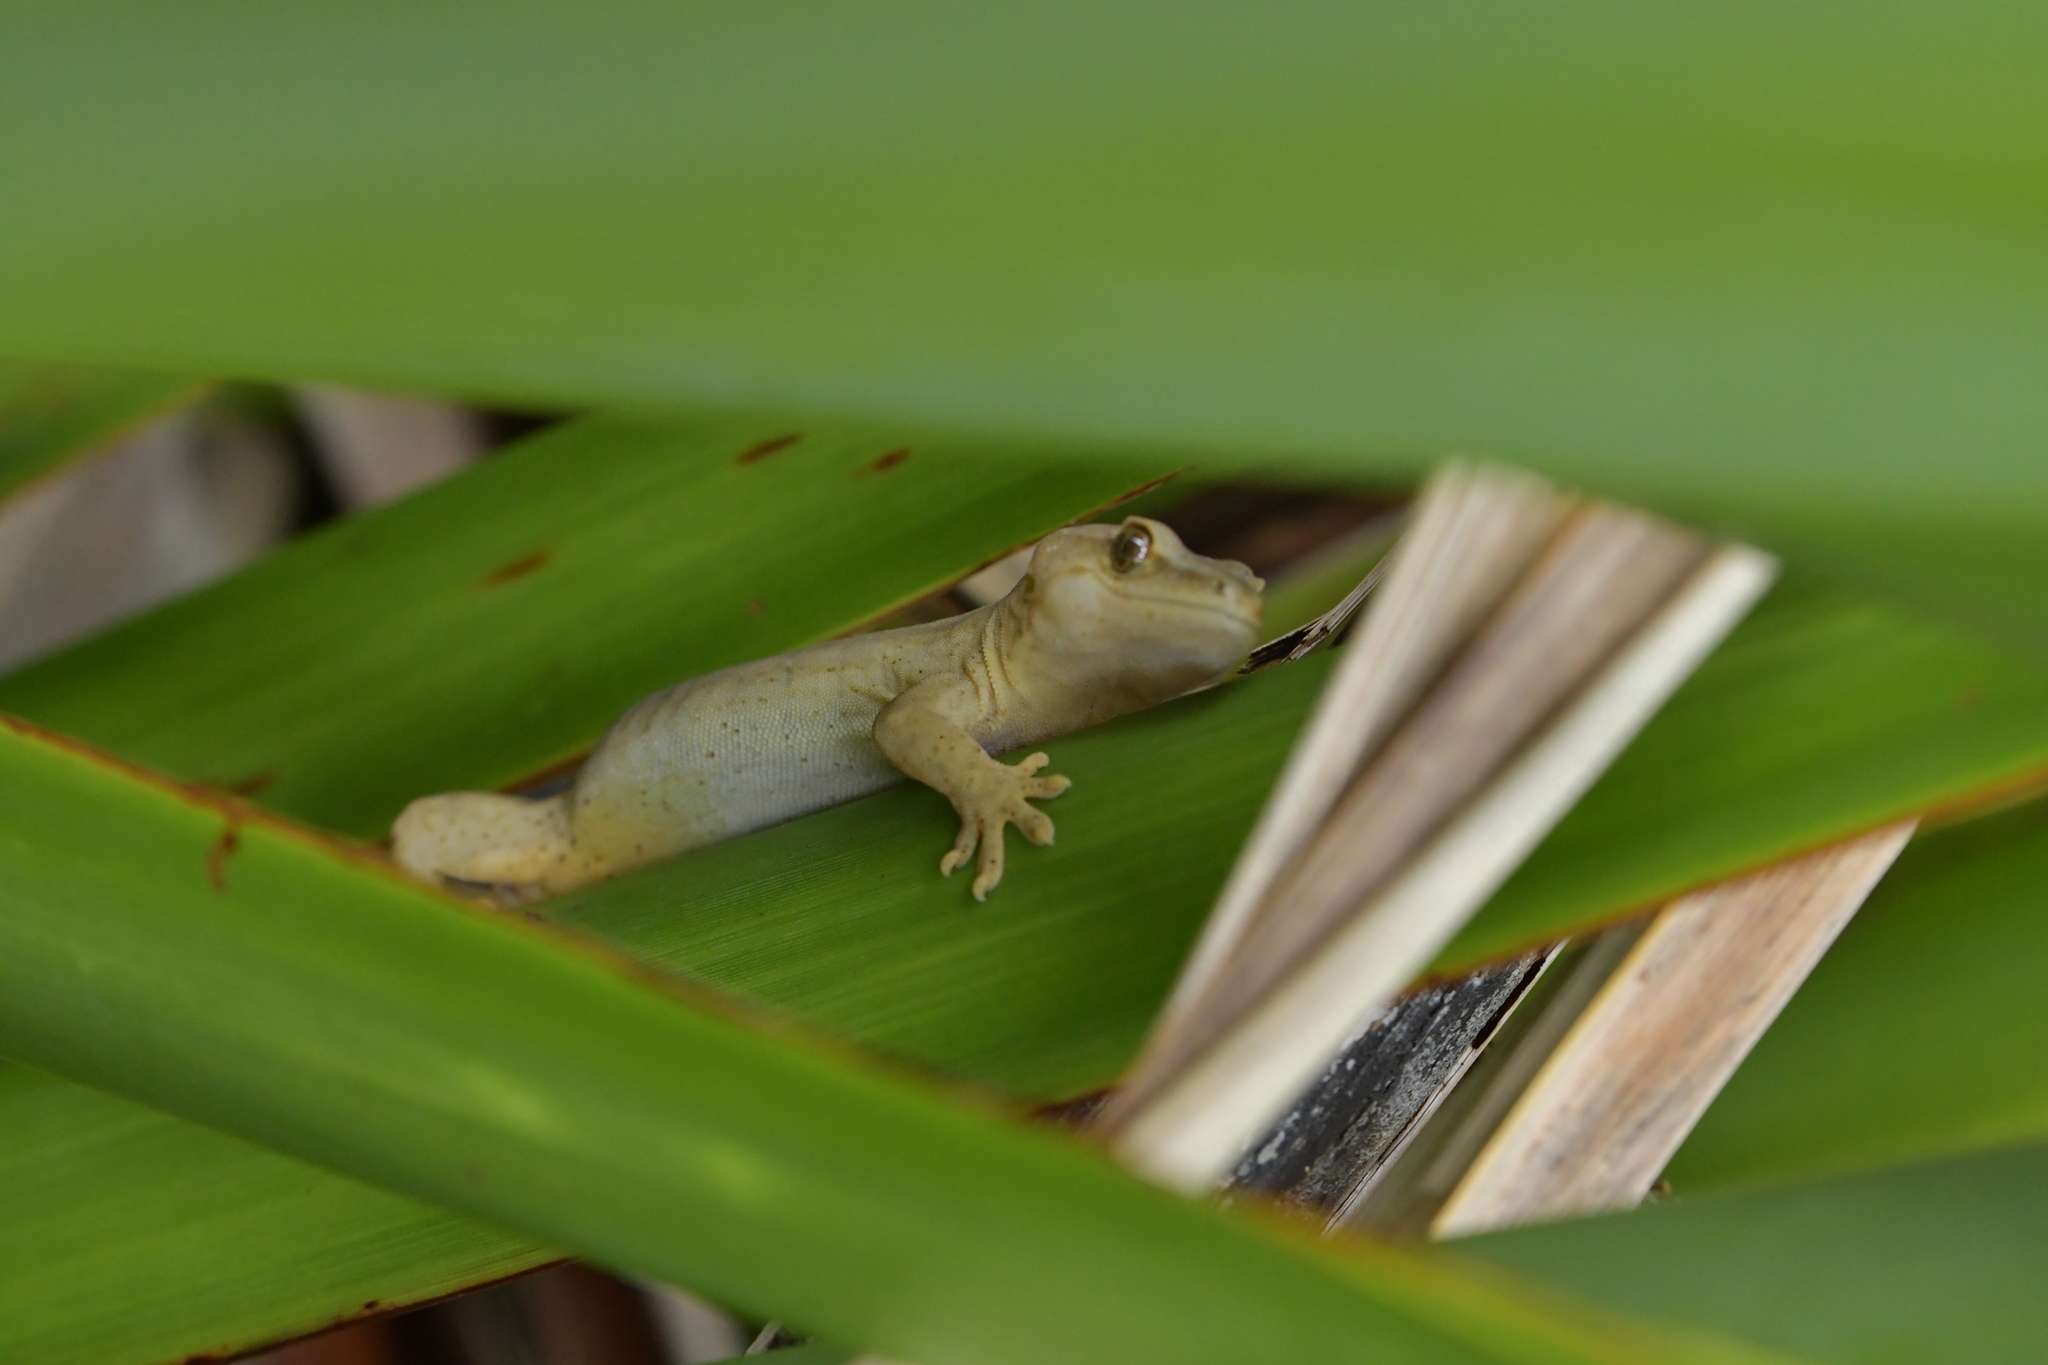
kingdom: Animalia
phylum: Chordata
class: Squamata
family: Diplodactylidae
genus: Woodworthia
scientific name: Woodworthia chrysosiretica
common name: Gold-striped gecko
